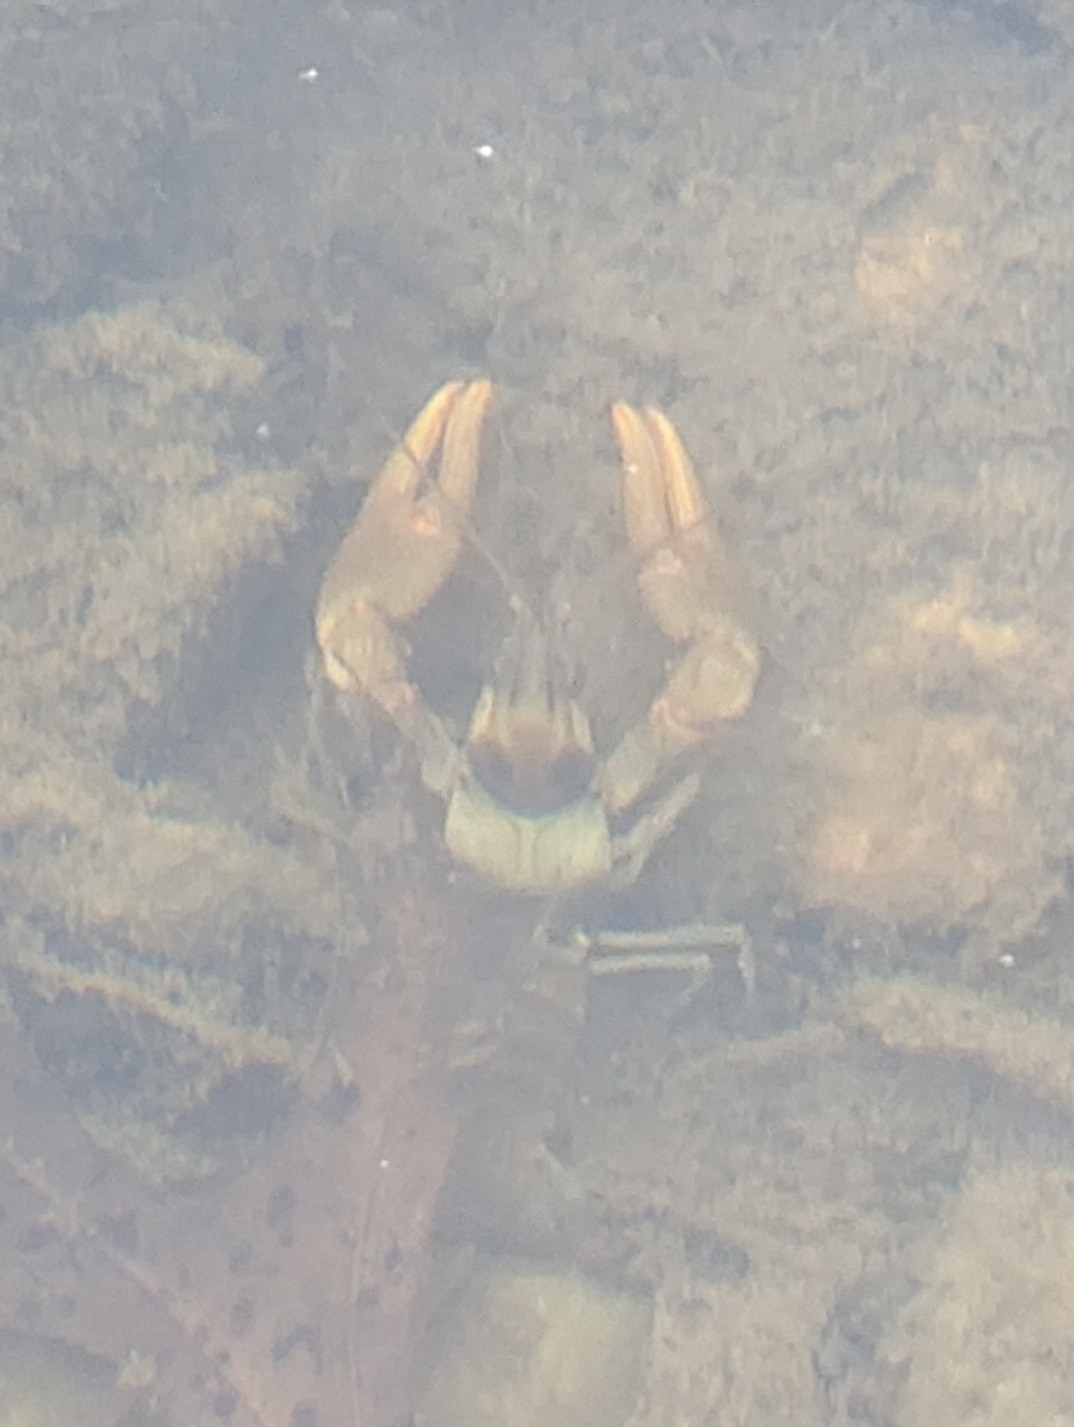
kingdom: Animalia
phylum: Arthropoda
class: Malacostraca
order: Decapoda
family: Cambaridae
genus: Faxonius
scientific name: Faxonius luteus
